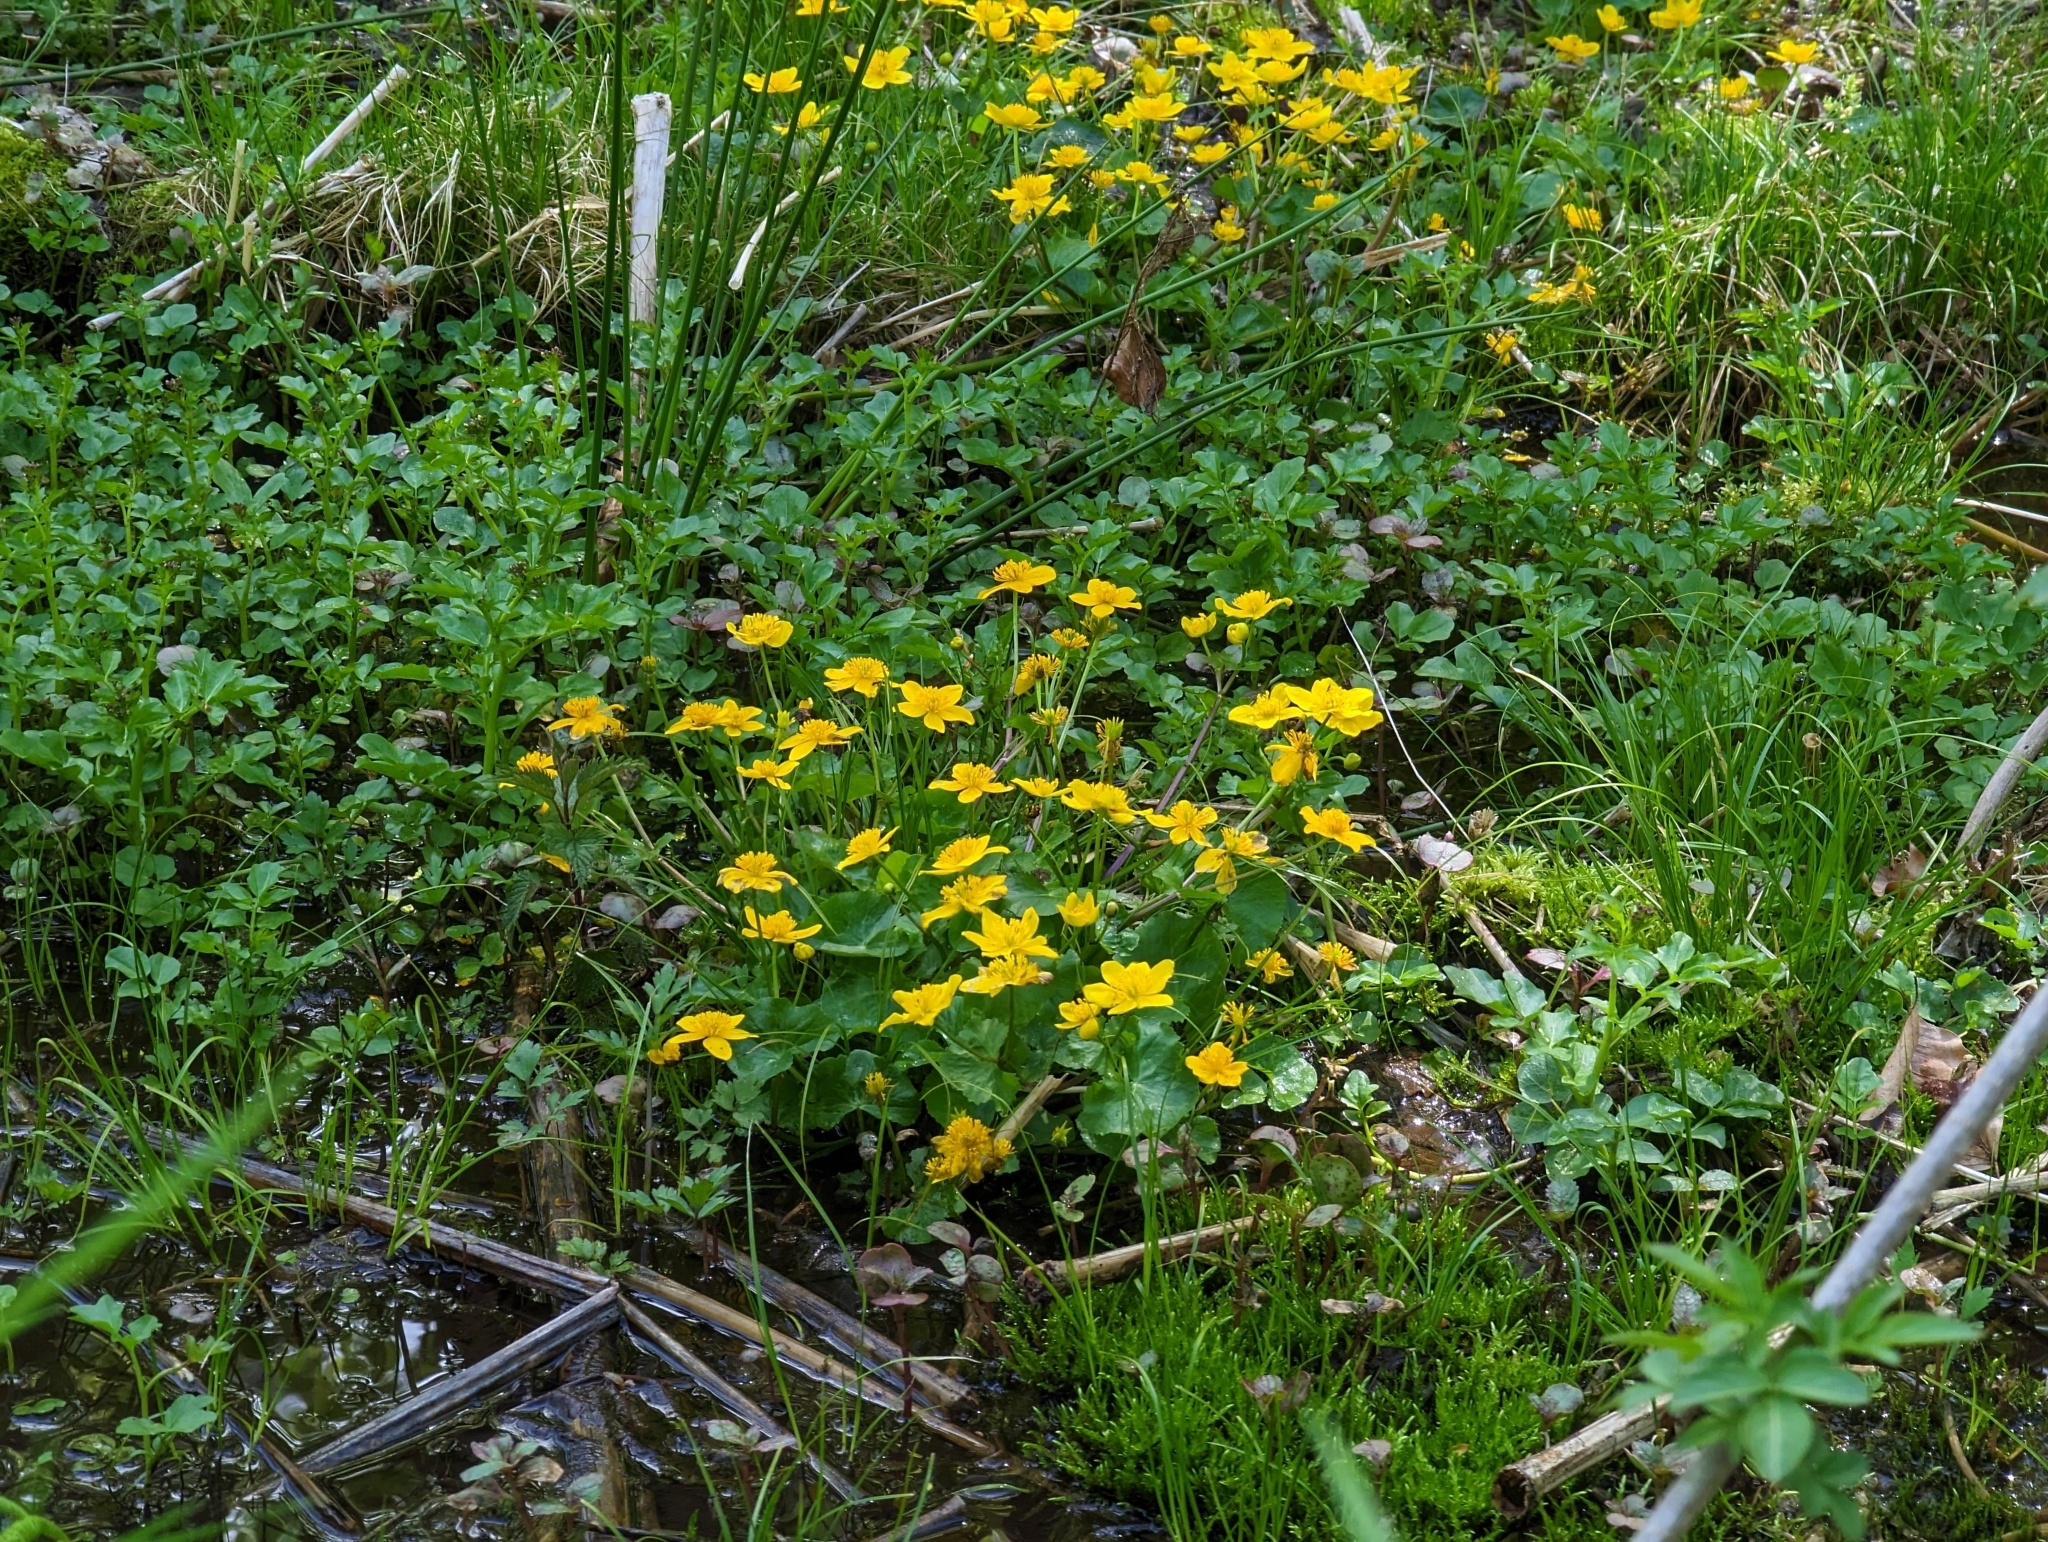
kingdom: Plantae
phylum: Tracheophyta
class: Magnoliopsida
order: Ranunculales
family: Ranunculaceae
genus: Caltha
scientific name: Caltha palustris
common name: Marsh marigold
